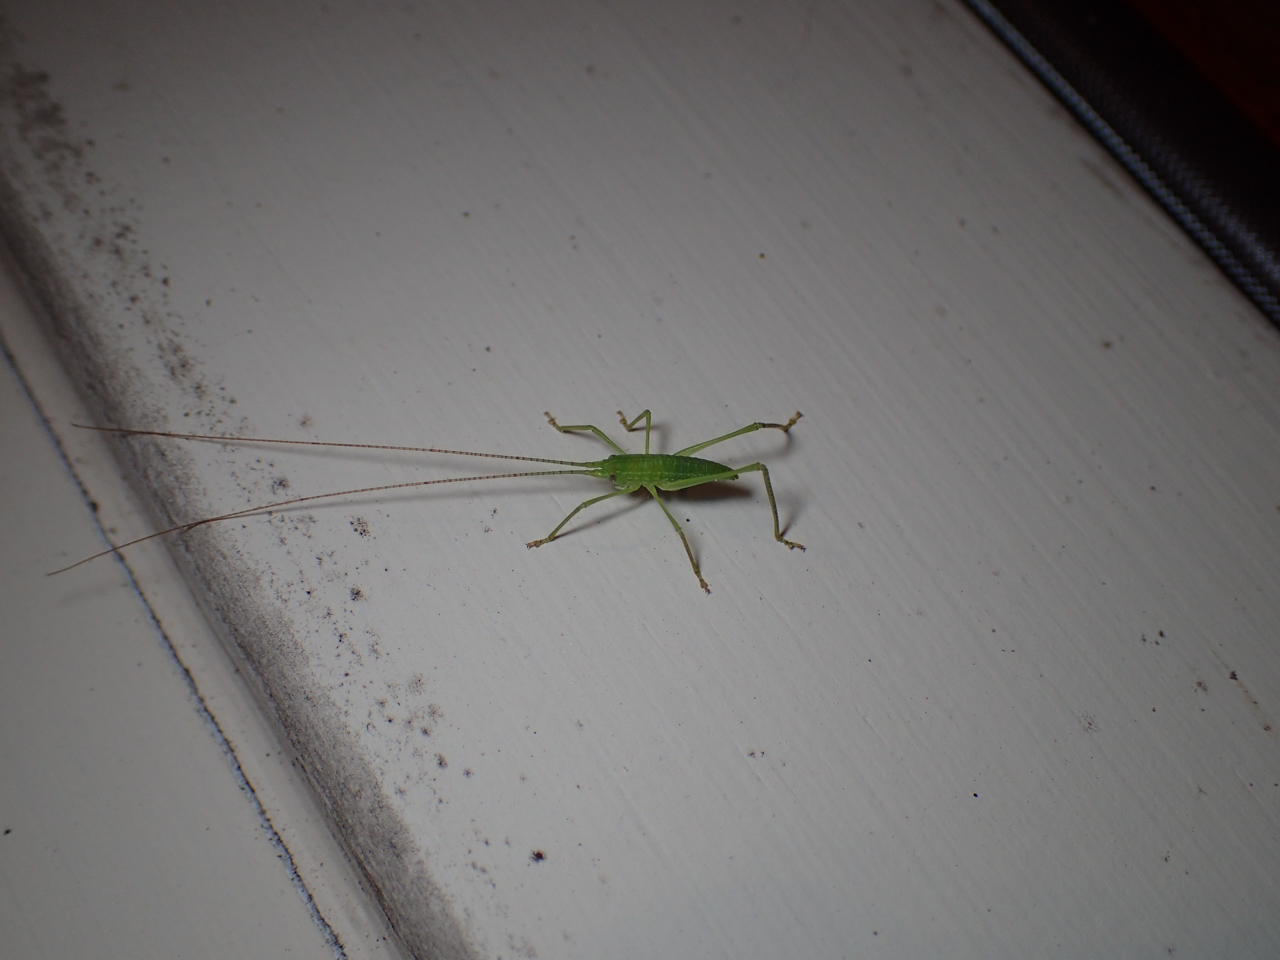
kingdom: Animalia
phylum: Arthropoda
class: Insecta
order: Orthoptera
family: Tettigoniidae
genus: Pterophylla
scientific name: Pterophylla camellifolia
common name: Common true katydid
